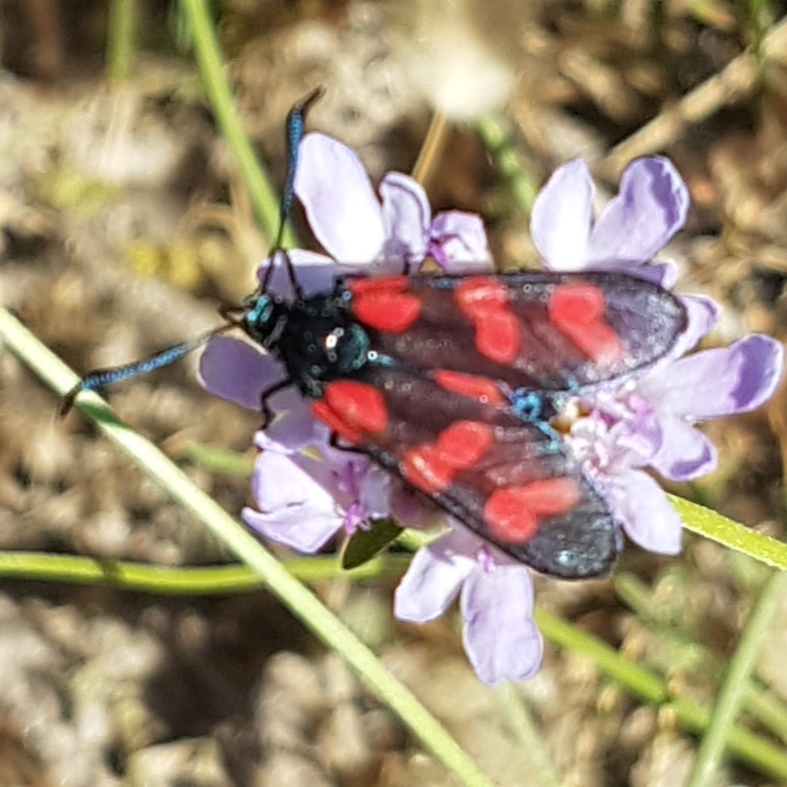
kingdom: Animalia
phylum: Arthropoda
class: Insecta
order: Lepidoptera
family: Zygaenidae
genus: Zygaena
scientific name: Zygaena filipendulae
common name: Six-spot burnet
